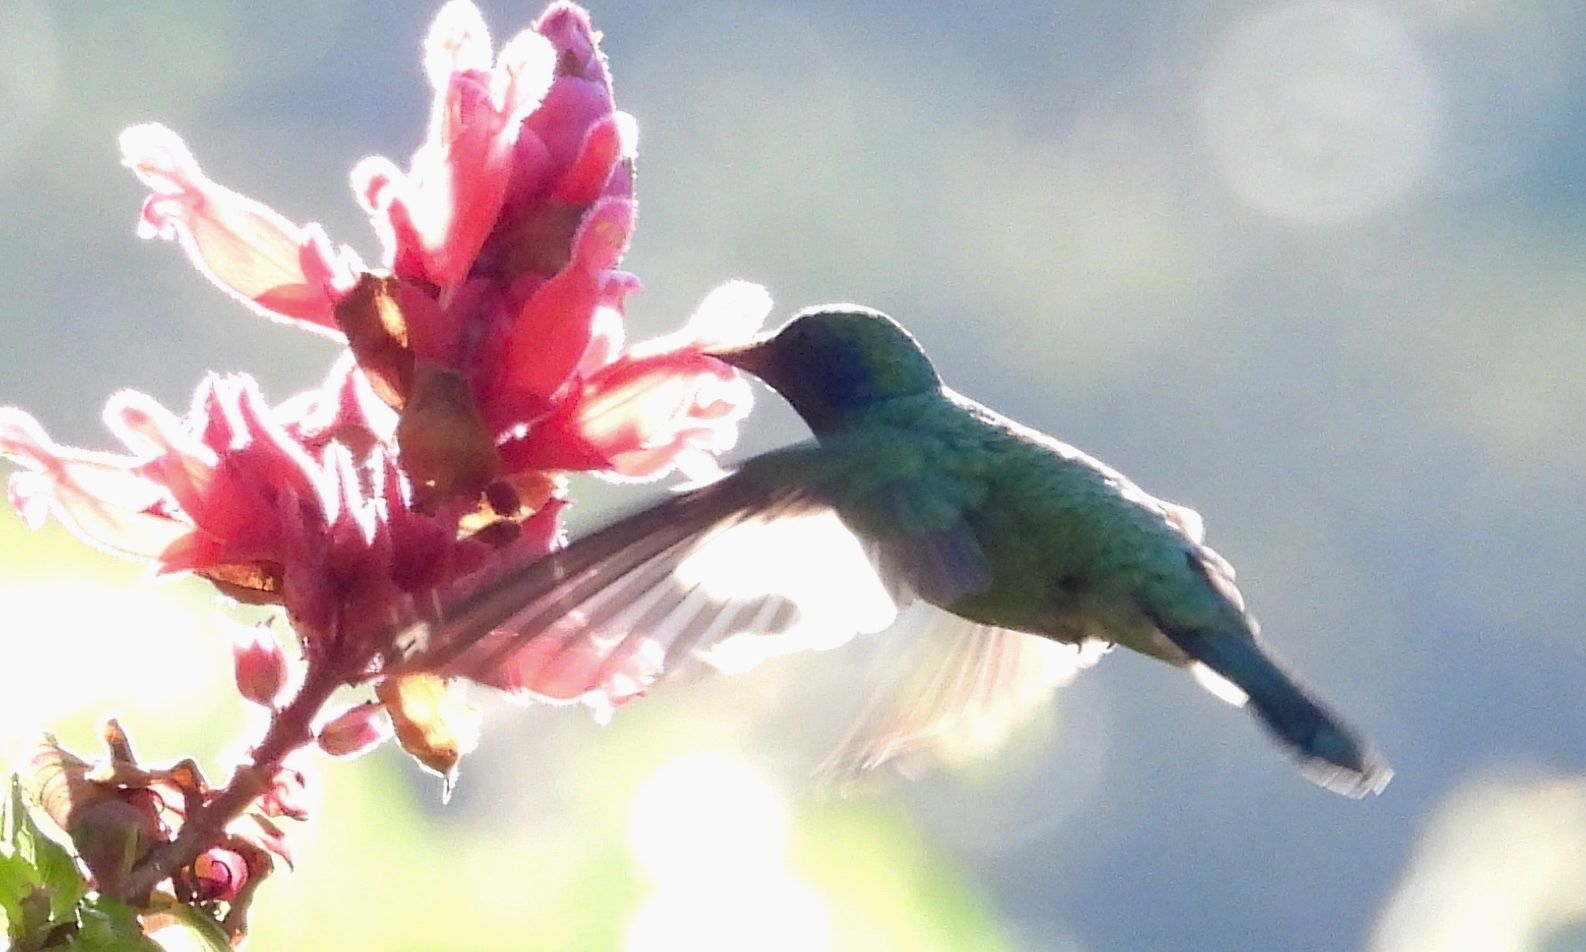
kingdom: Animalia
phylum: Chordata
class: Aves
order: Apodiformes
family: Trochilidae
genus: Colibri
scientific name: Colibri thalassinus
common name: Green violetear
